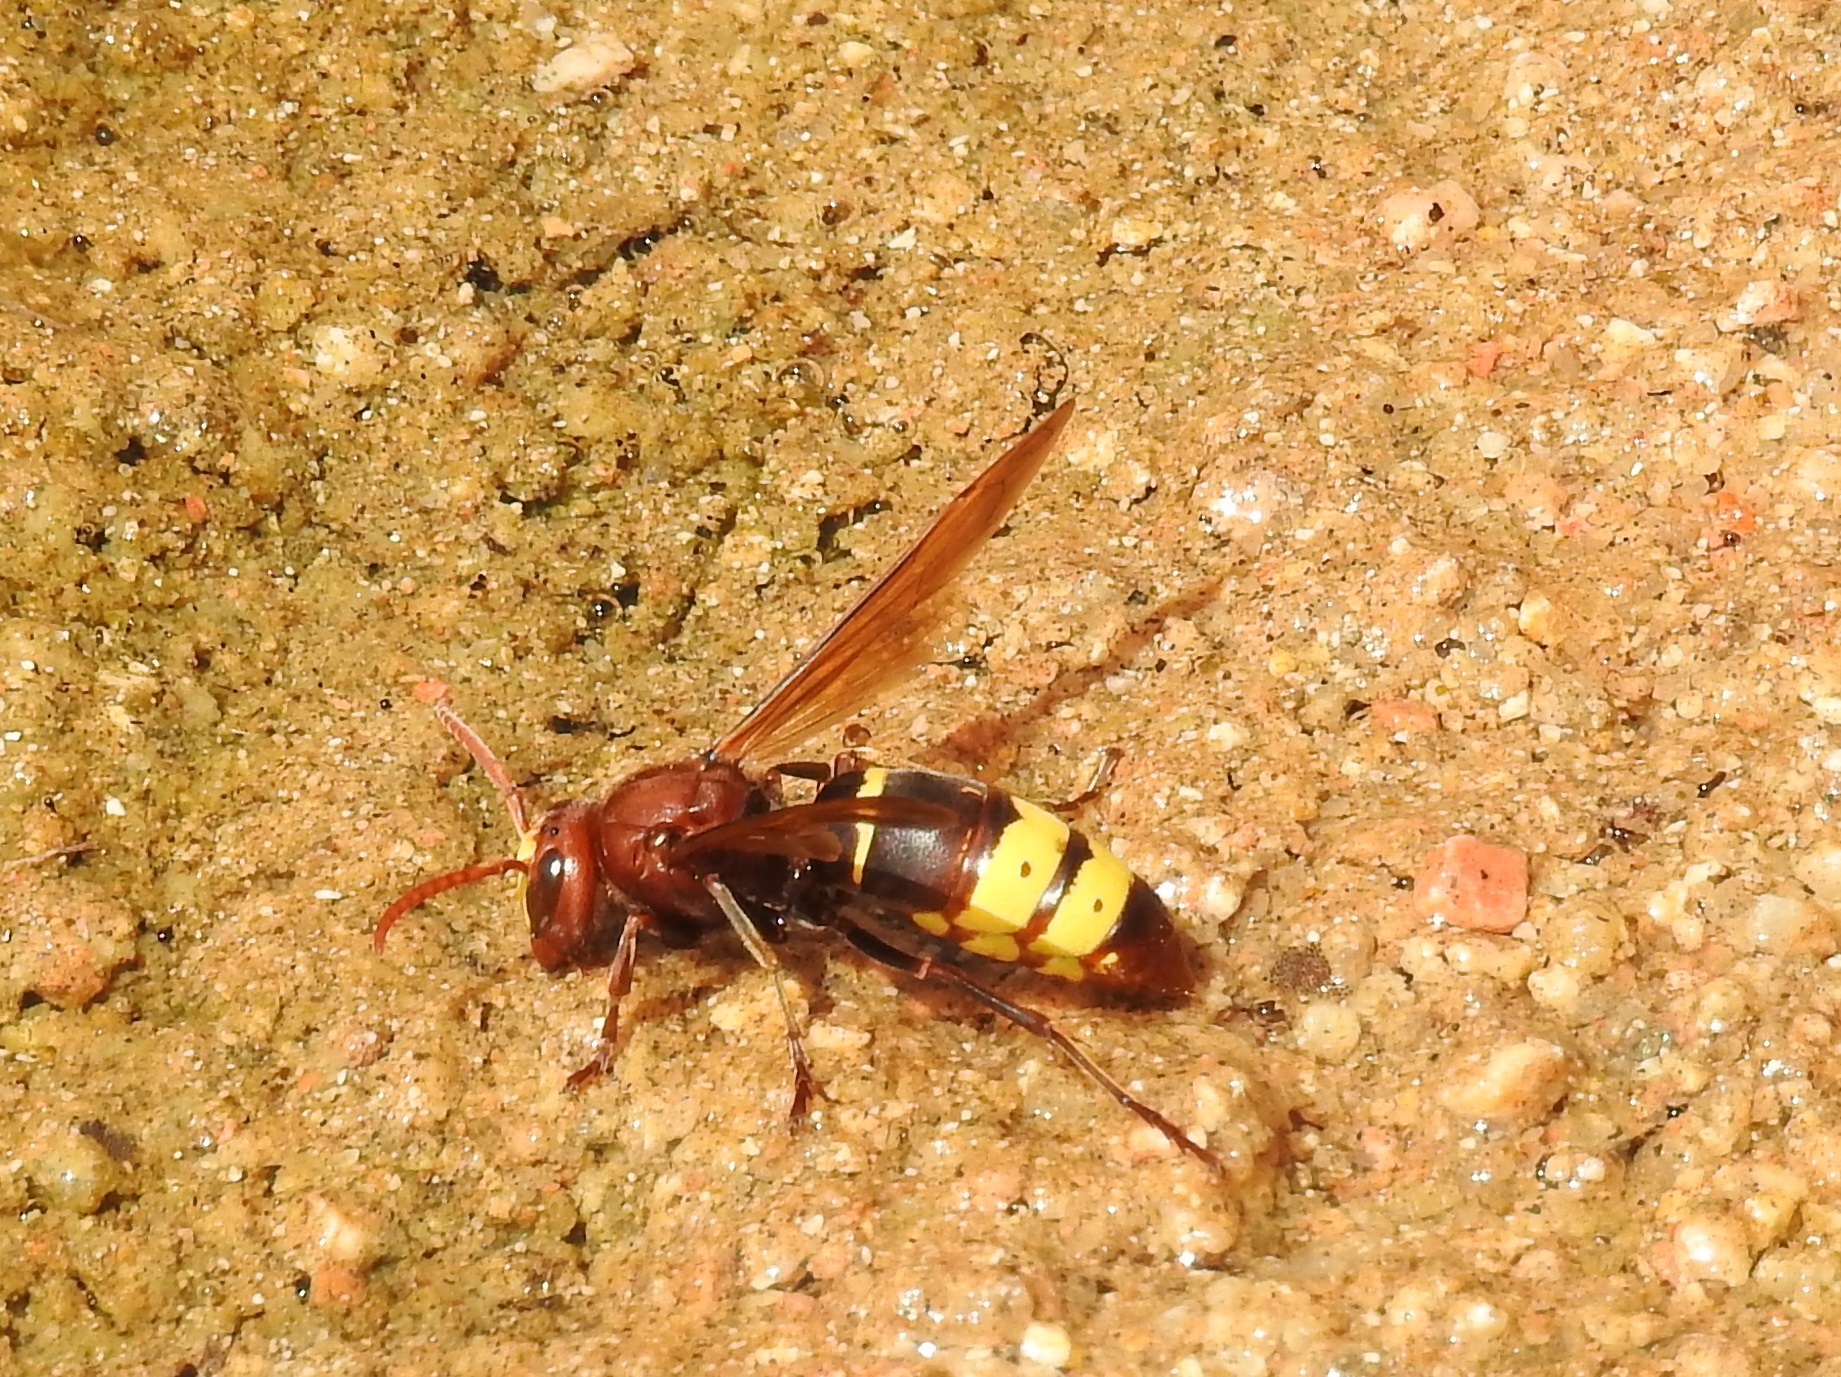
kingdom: Animalia
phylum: Arthropoda
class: Insecta
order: Hymenoptera
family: Vespidae
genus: Vespa
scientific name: Vespa orientalis
